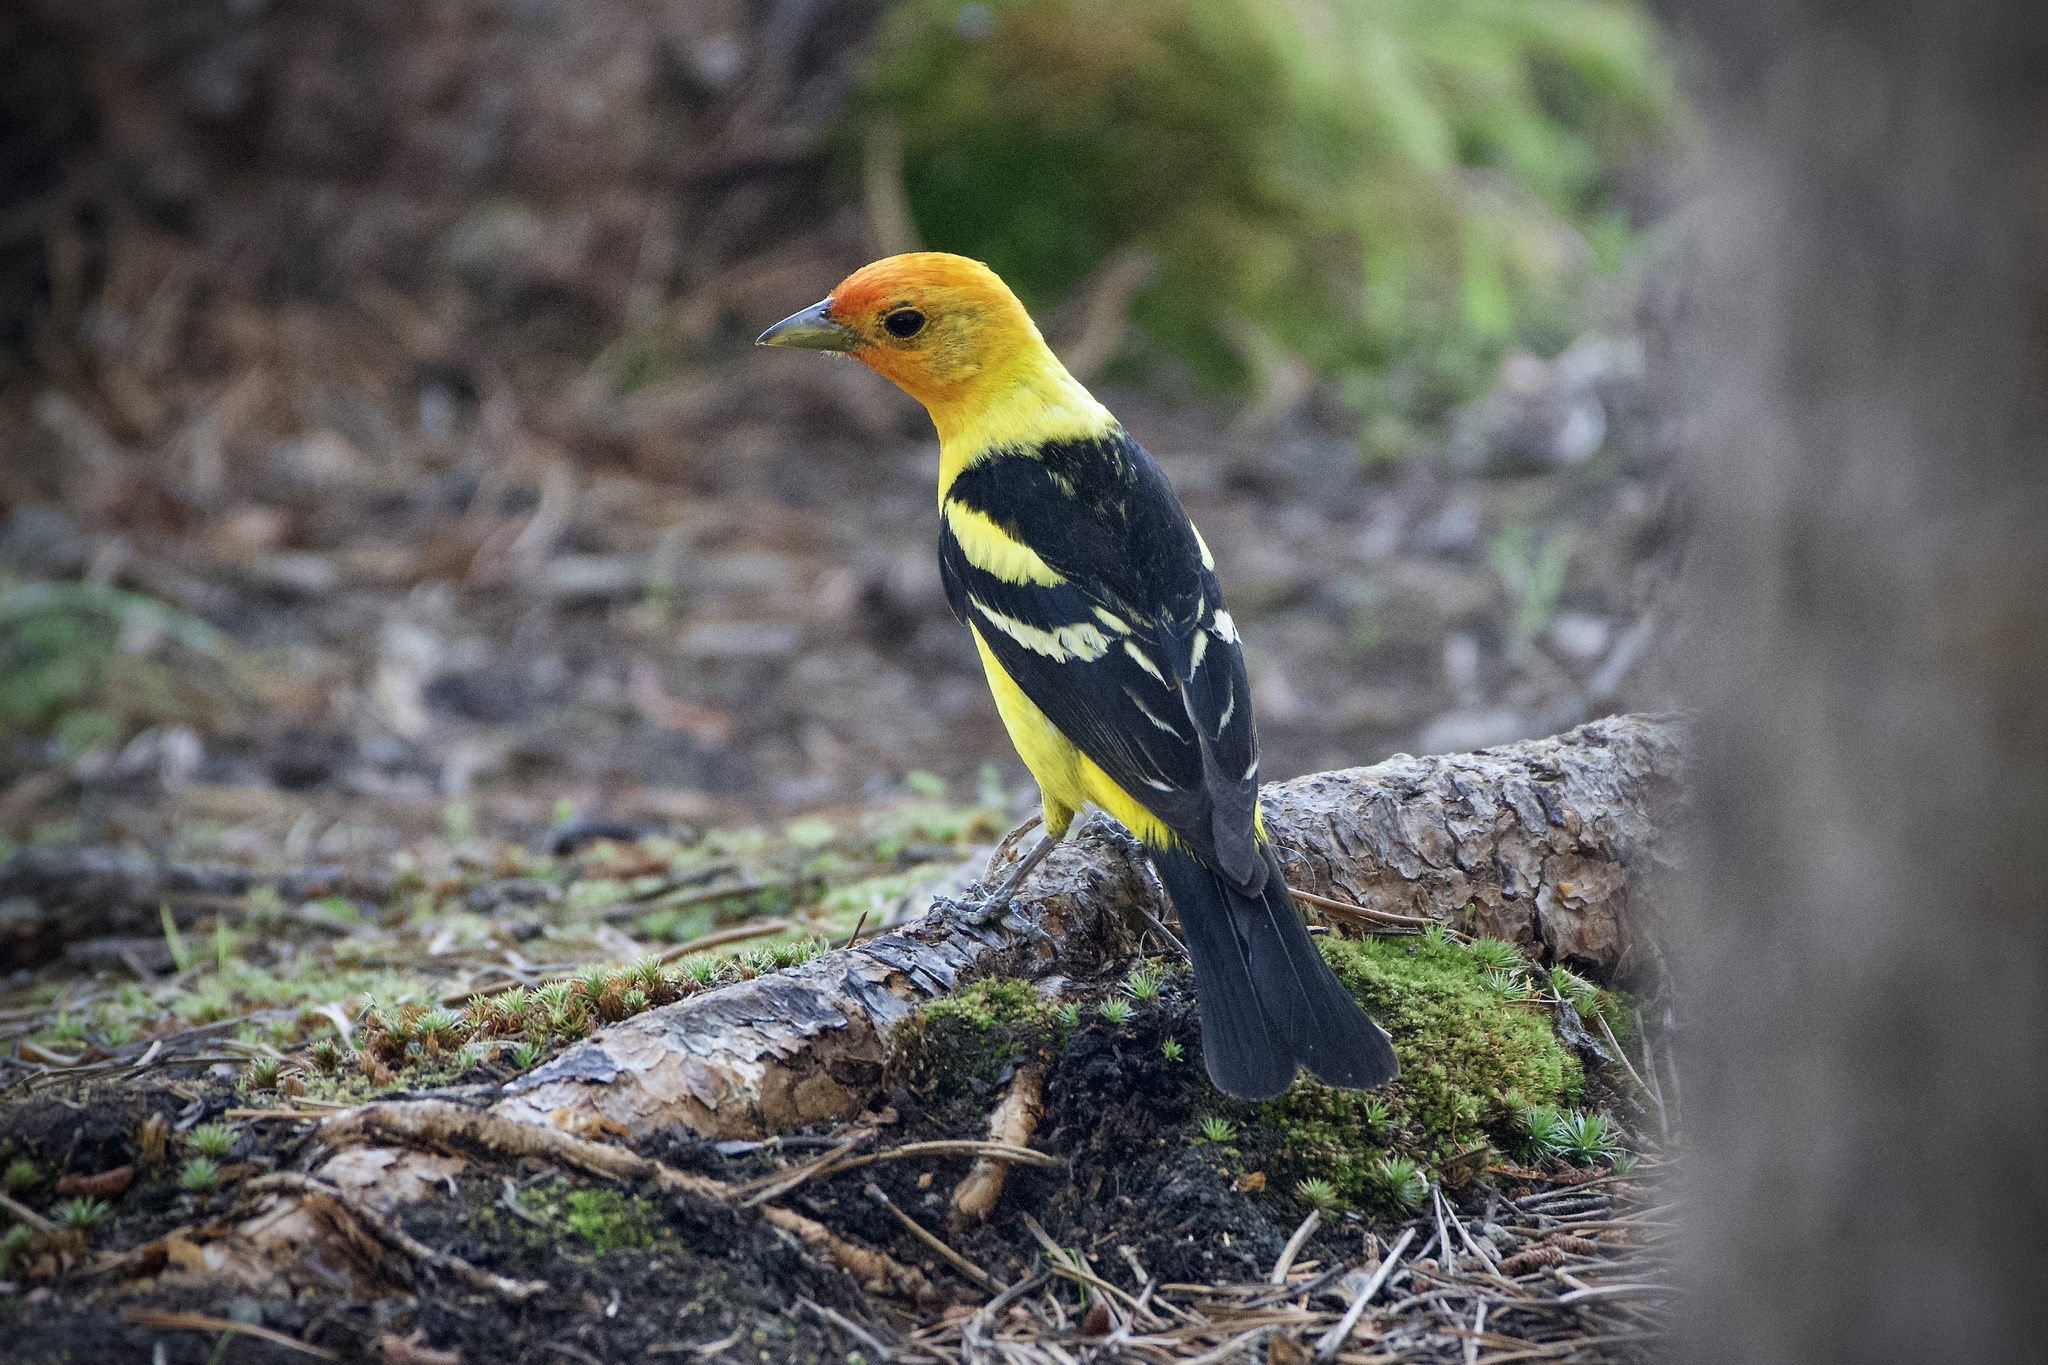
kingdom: Animalia
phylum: Chordata
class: Aves
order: Passeriformes
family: Cardinalidae
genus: Piranga
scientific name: Piranga ludoviciana
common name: Western tanager
